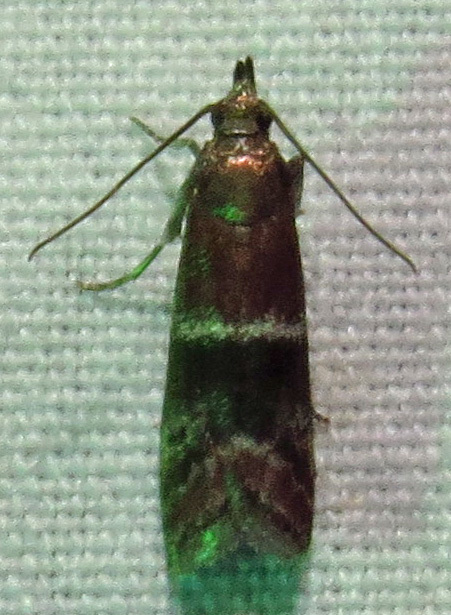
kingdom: Animalia
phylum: Arthropoda
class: Insecta
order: Lepidoptera
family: Pyralidae
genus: Moodna
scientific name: Moodna ostrinella
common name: Darker moodna moth
